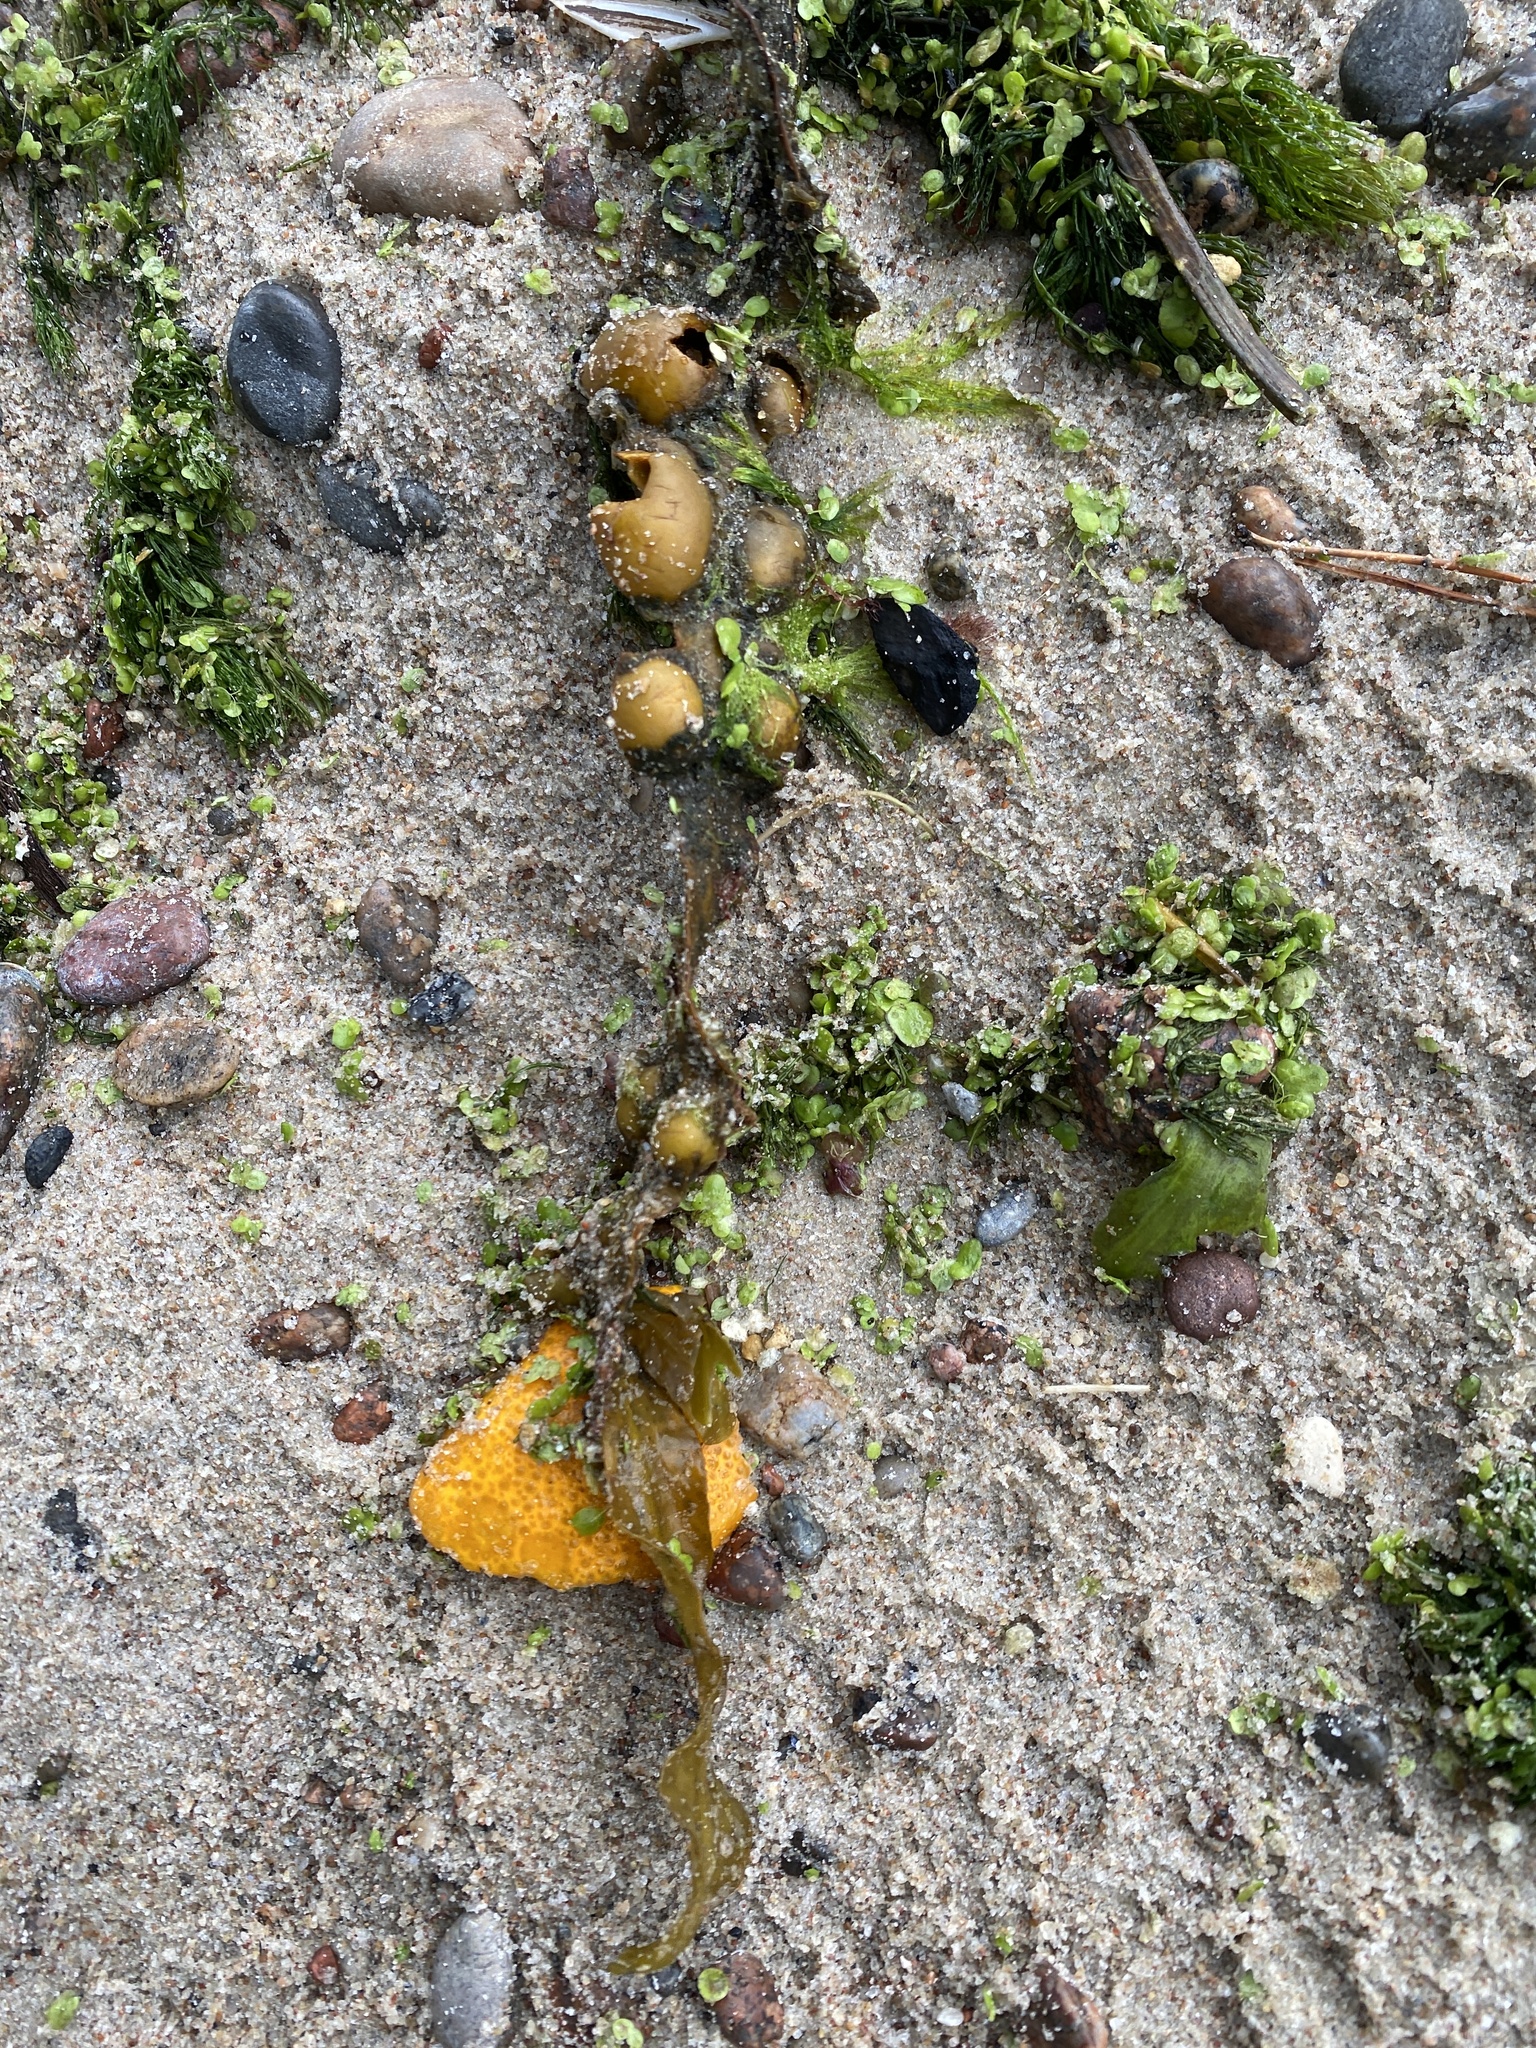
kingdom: Chromista
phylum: Ochrophyta
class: Phaeophyceae
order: Fucales
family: Fucaceae
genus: Fucus
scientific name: Fucus vesiculosus
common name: Bladder wrack
